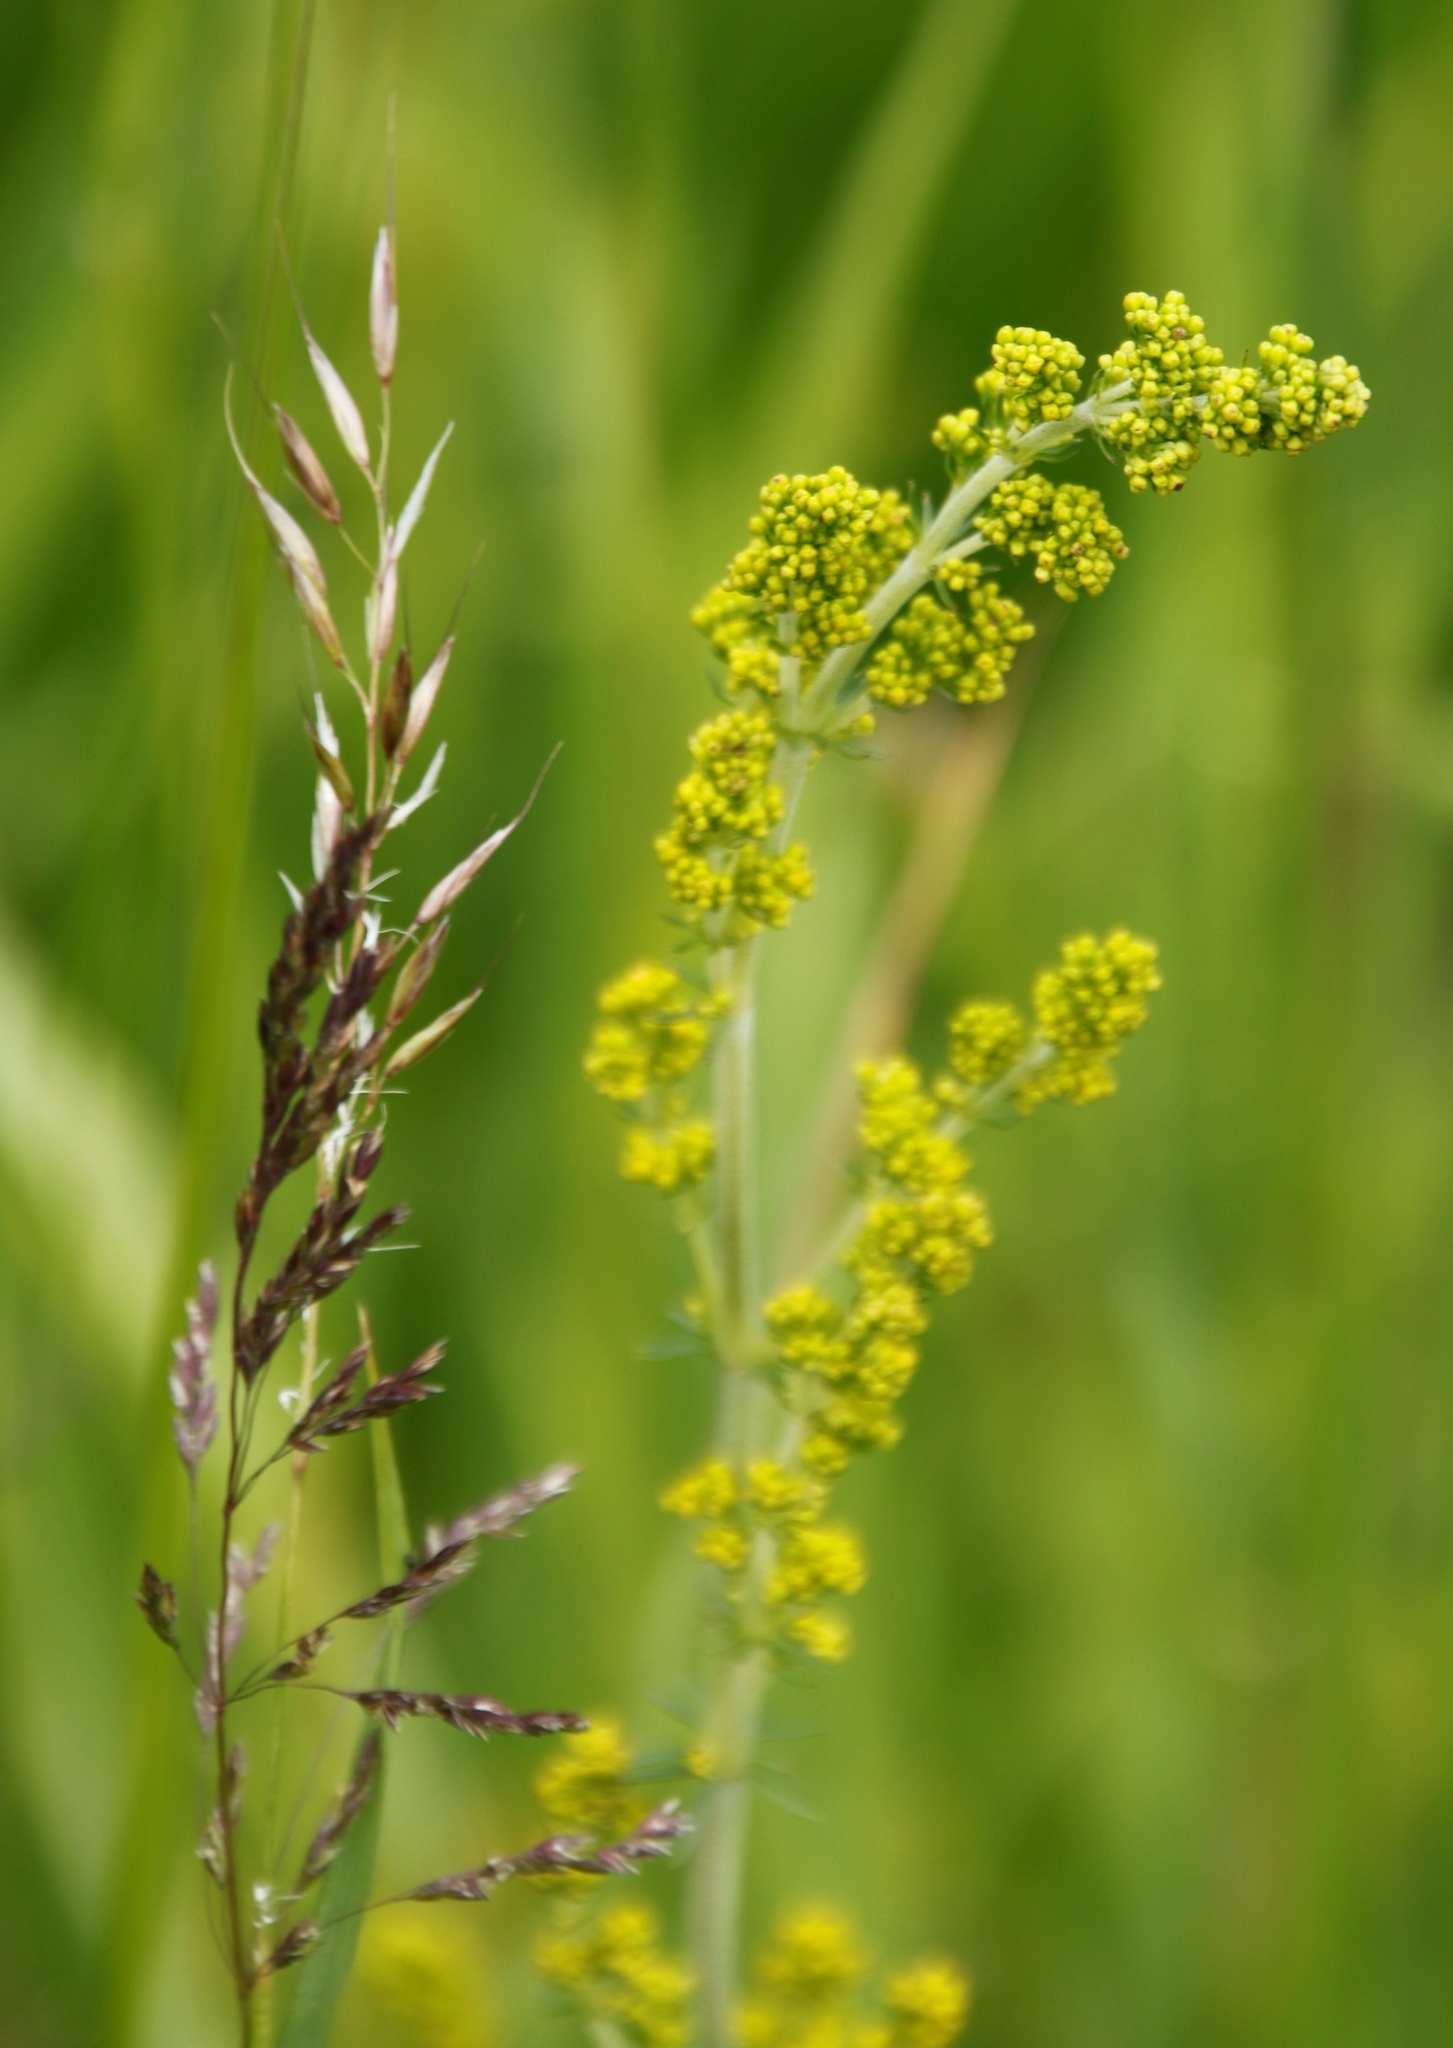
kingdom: Plantae
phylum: Tracheophyta
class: Magnoliopsida
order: Gentianales
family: Rubiaceae
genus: Galium
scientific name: Galium verum
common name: Lady's bedstraw
